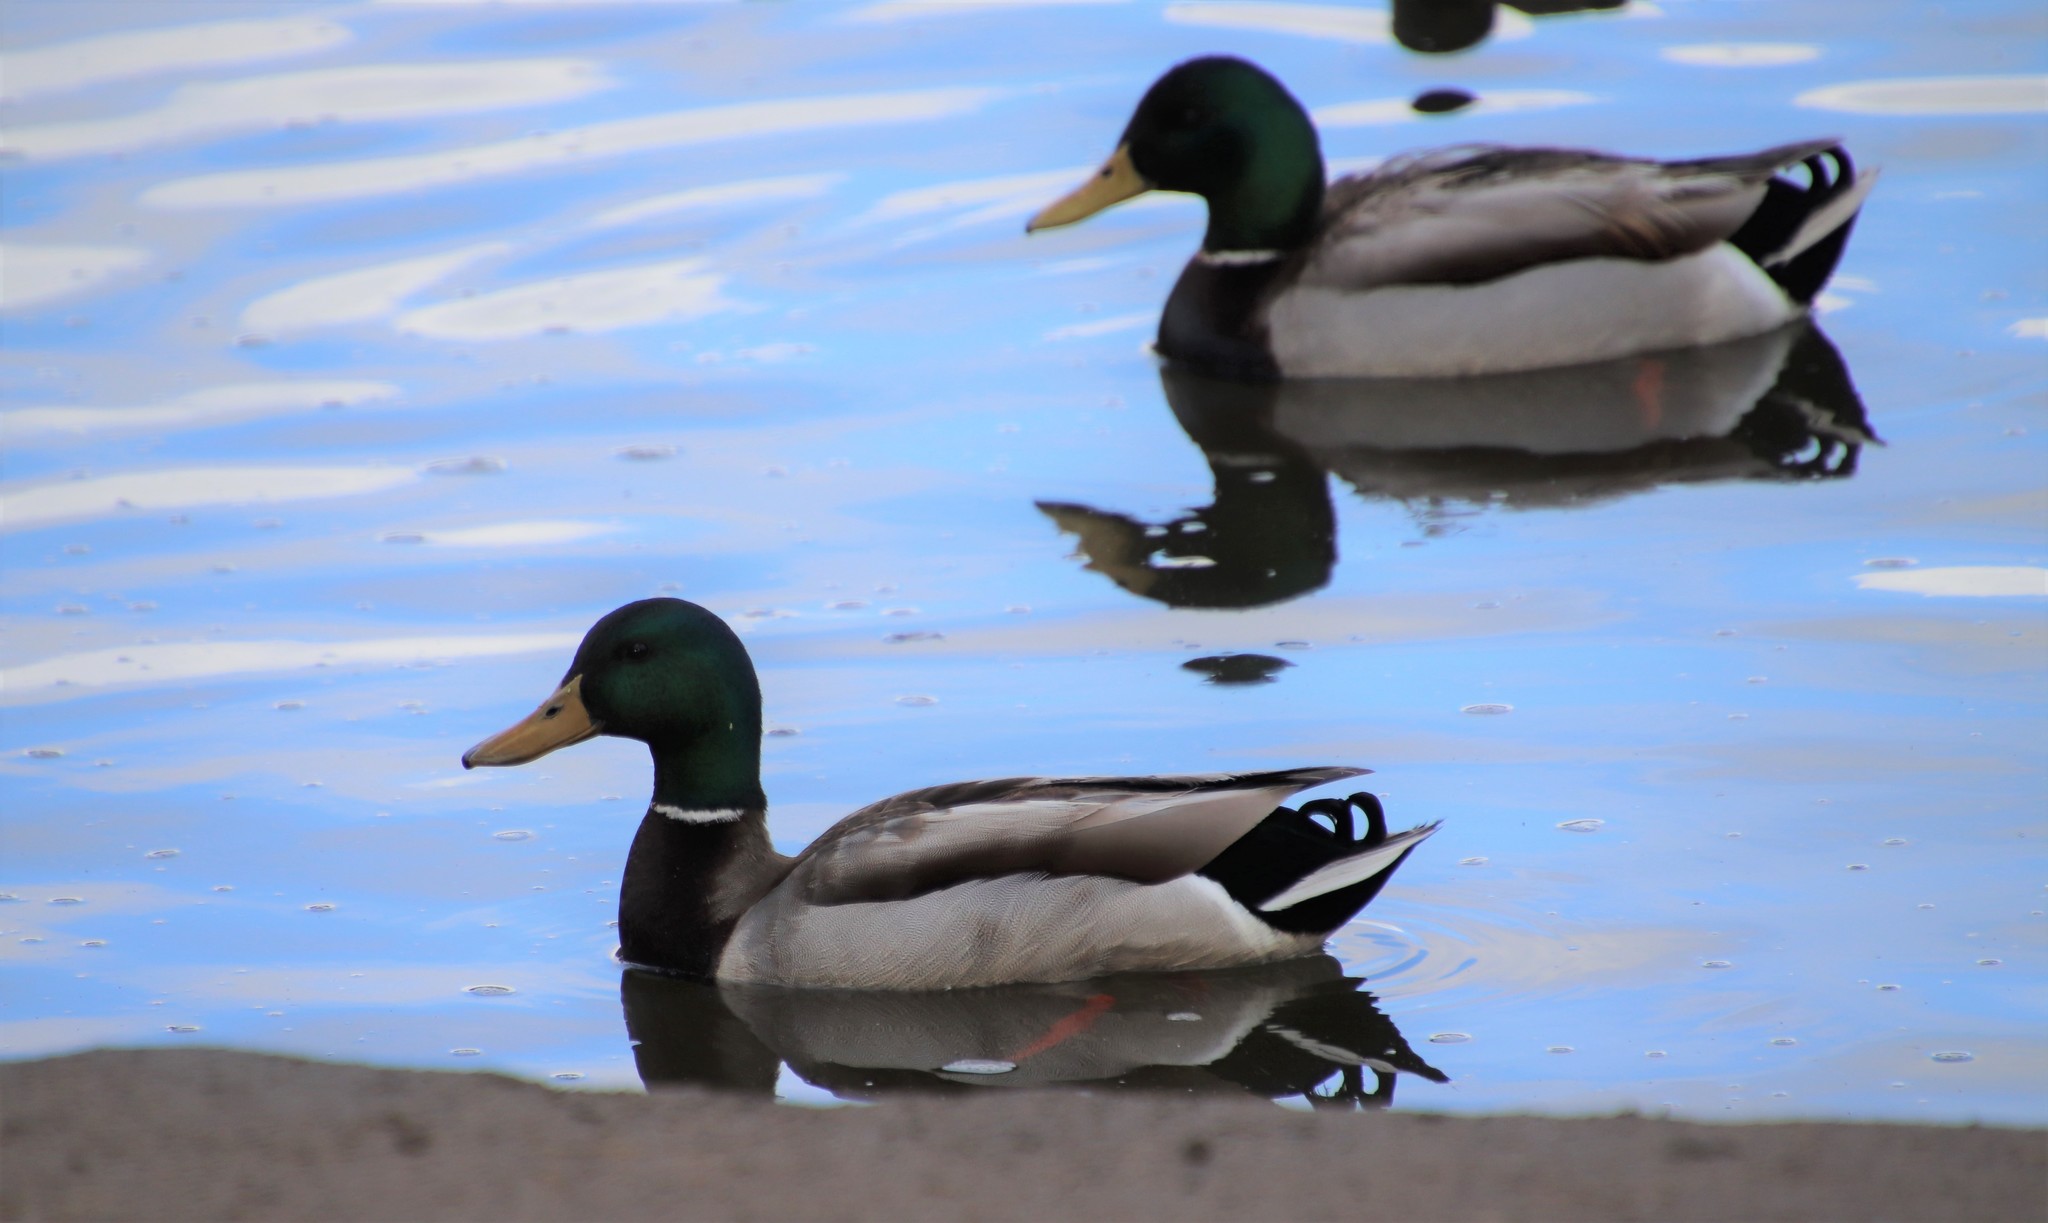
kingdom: Animalia
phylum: Chordata
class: Aves
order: Anseriformes
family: Anatidae
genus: Anas
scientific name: Anas platyrhynchos
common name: Mallard
